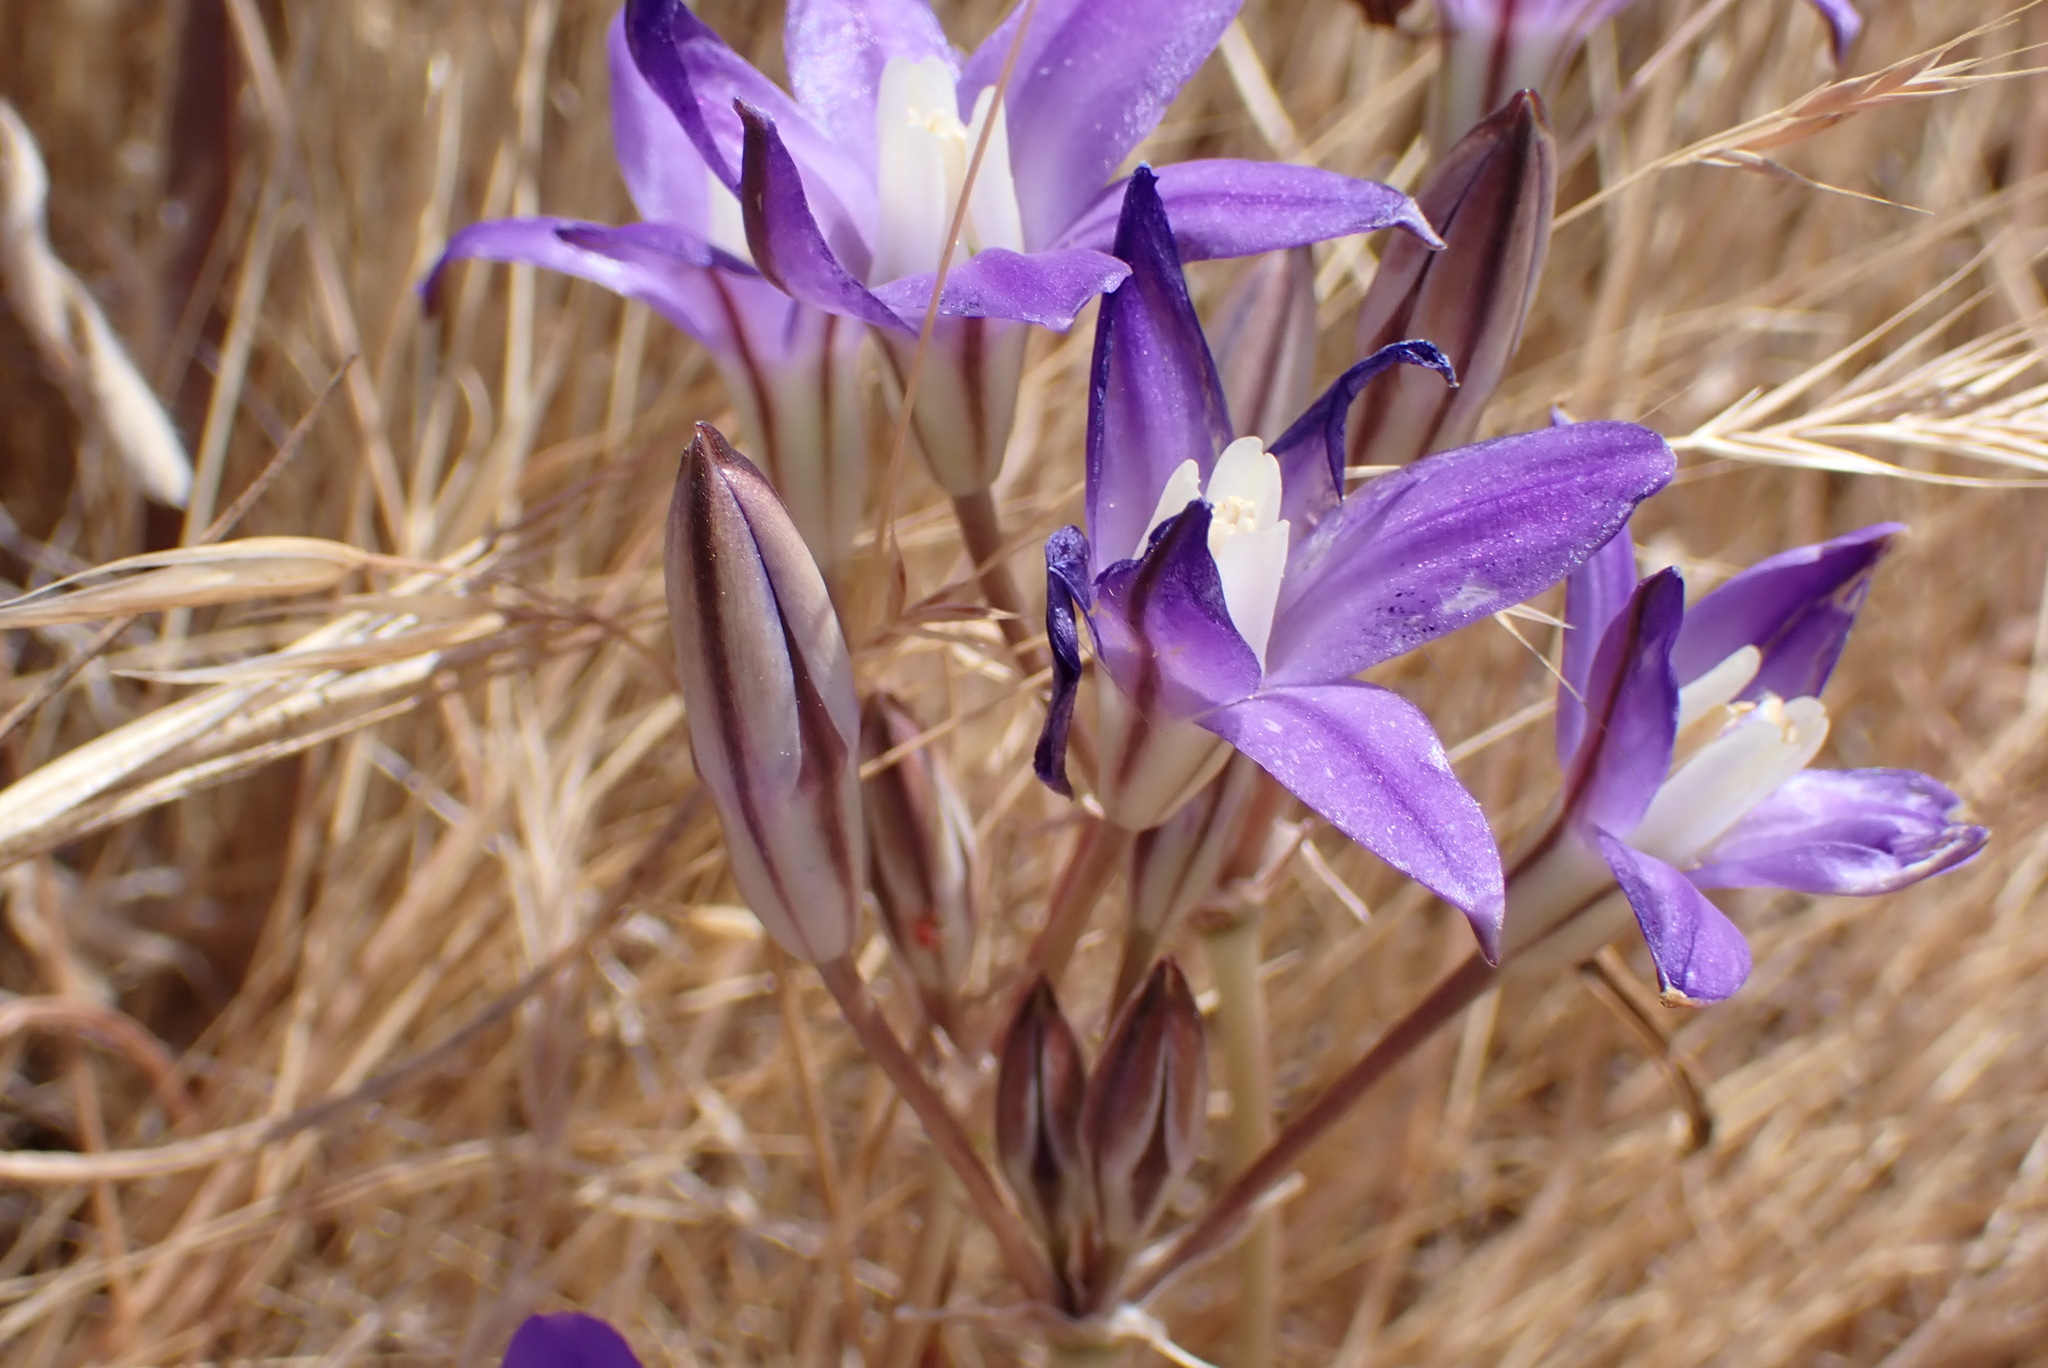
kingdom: Plantae
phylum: Tracheophyta
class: Liliopsida
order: Asparagales
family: Asparagaceae
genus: Brodiaea
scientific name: Brodiaea coronaria
